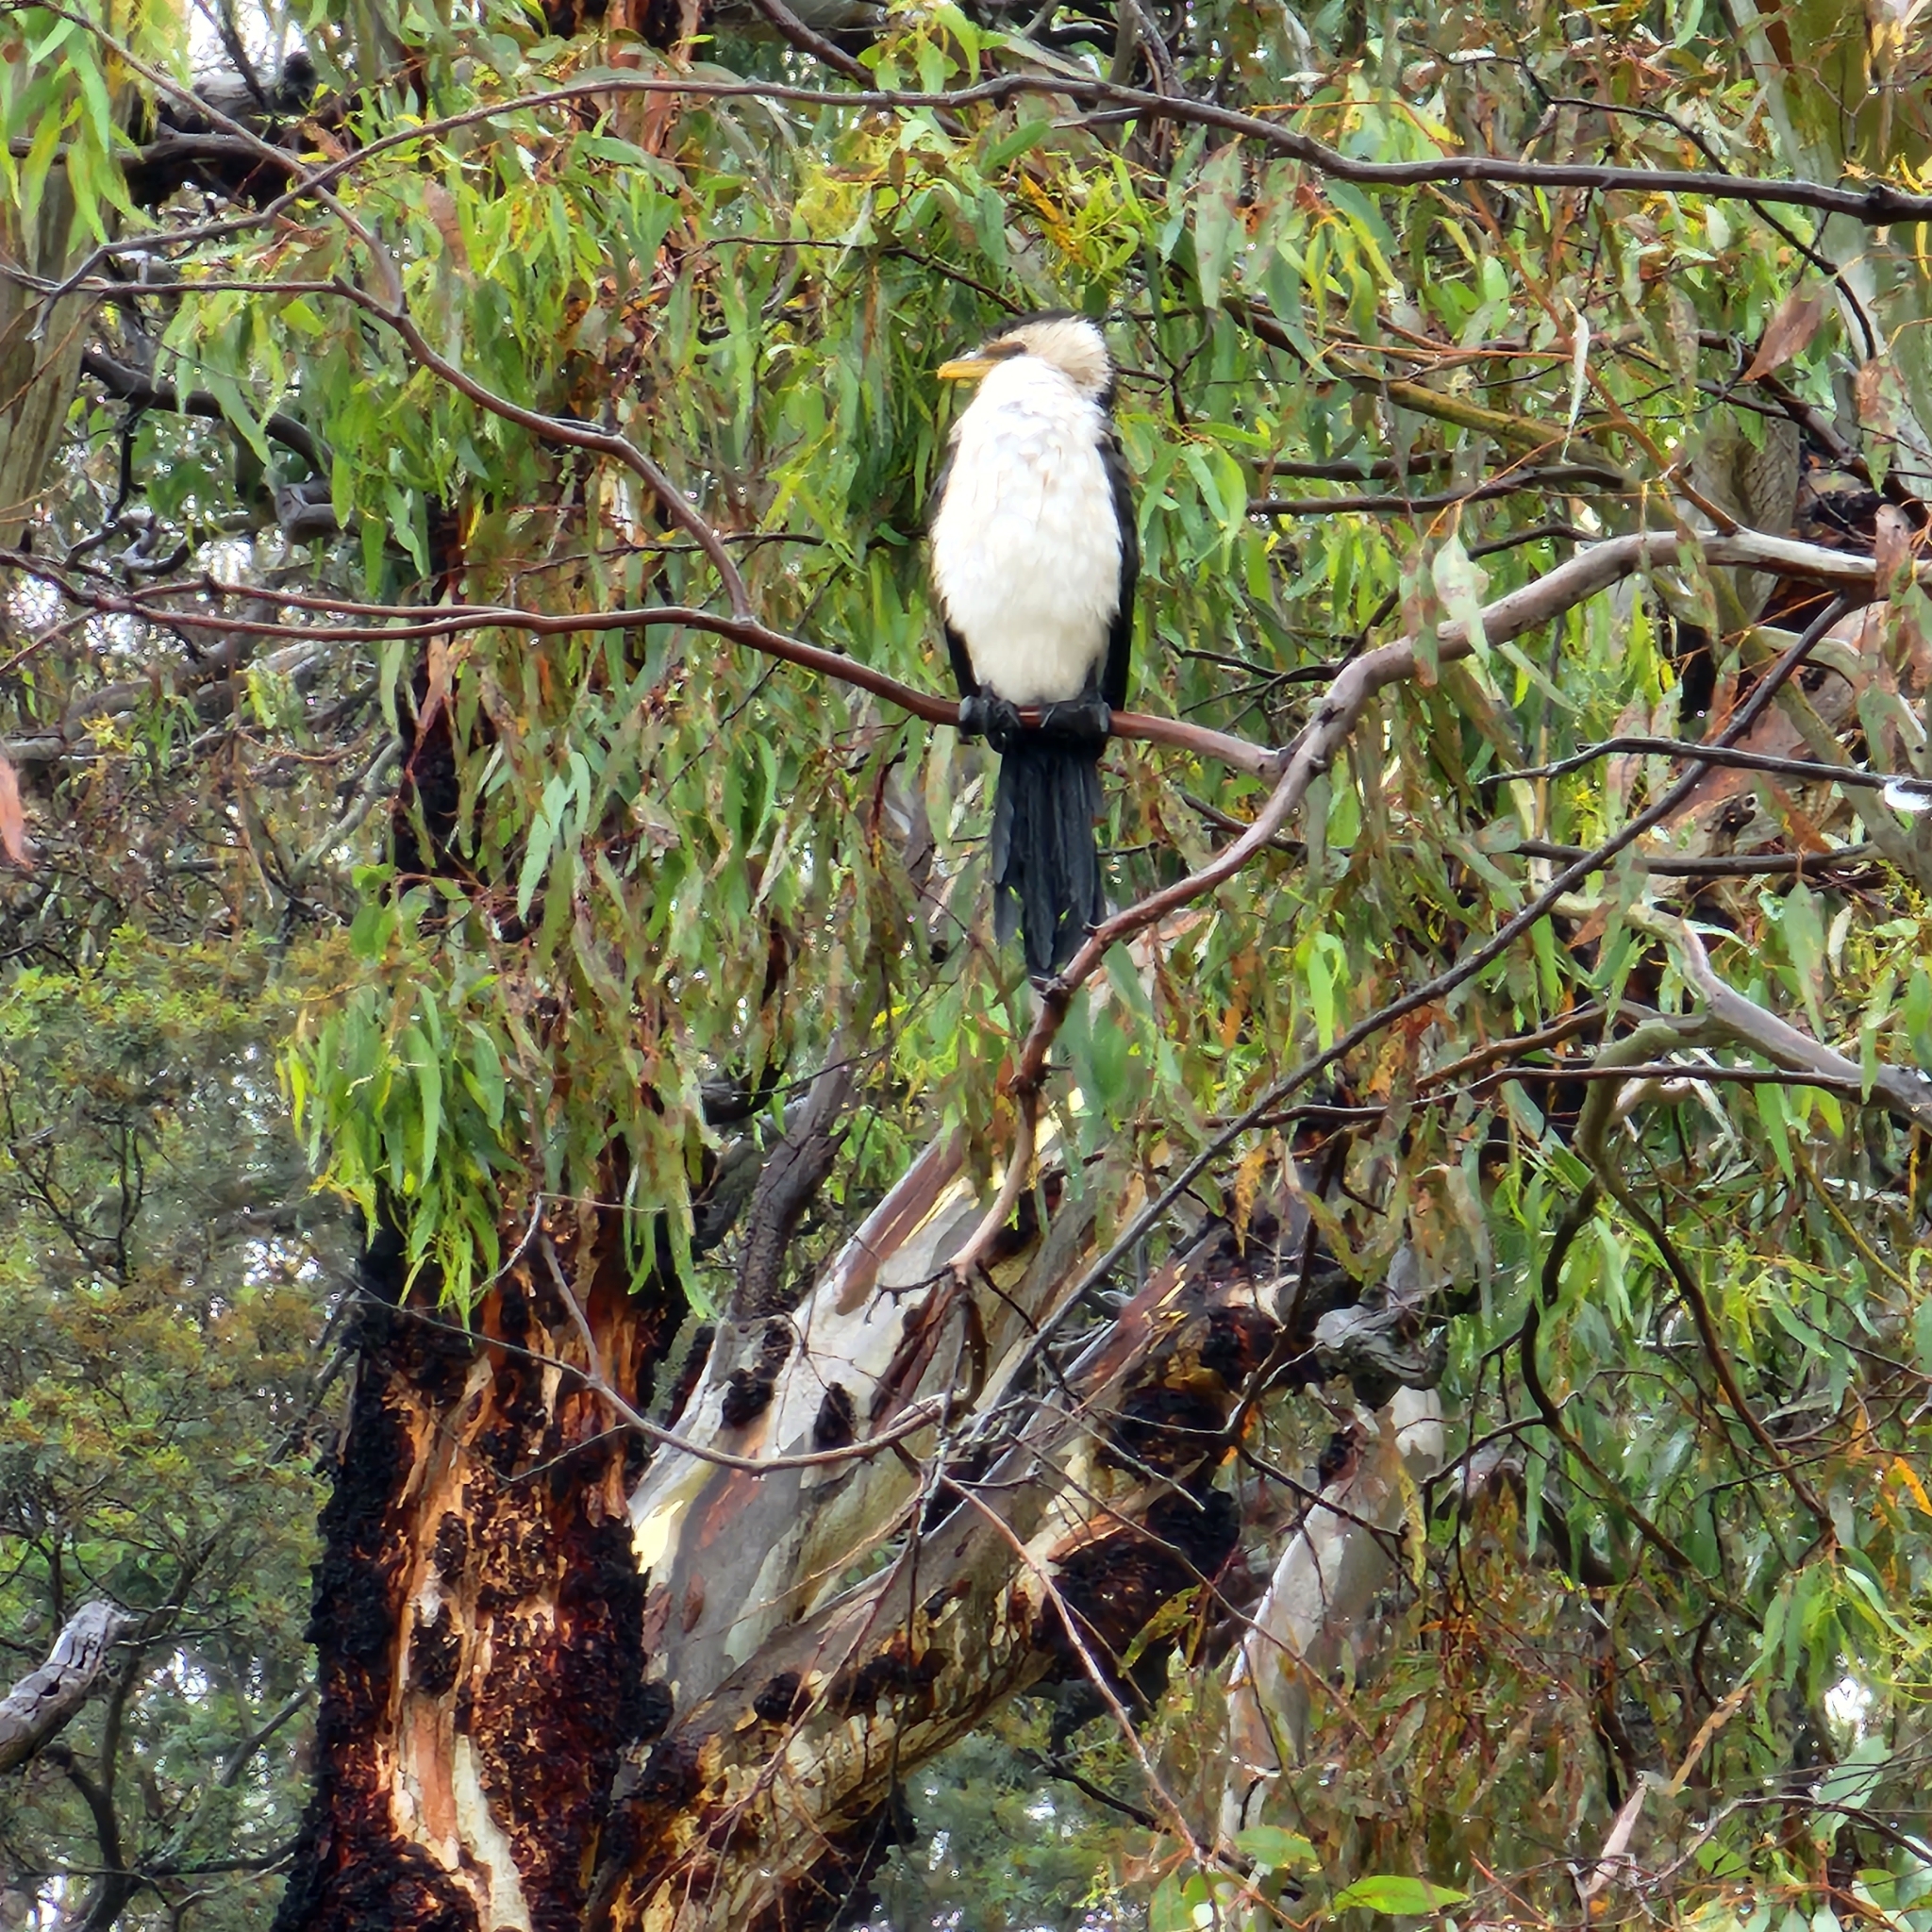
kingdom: Animalia
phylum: Chordata
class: Aves
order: Suliformes
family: Phalacrocoracidae
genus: Microcarbo
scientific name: Microcarbo melanoleucos
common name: Little pied cormorant
